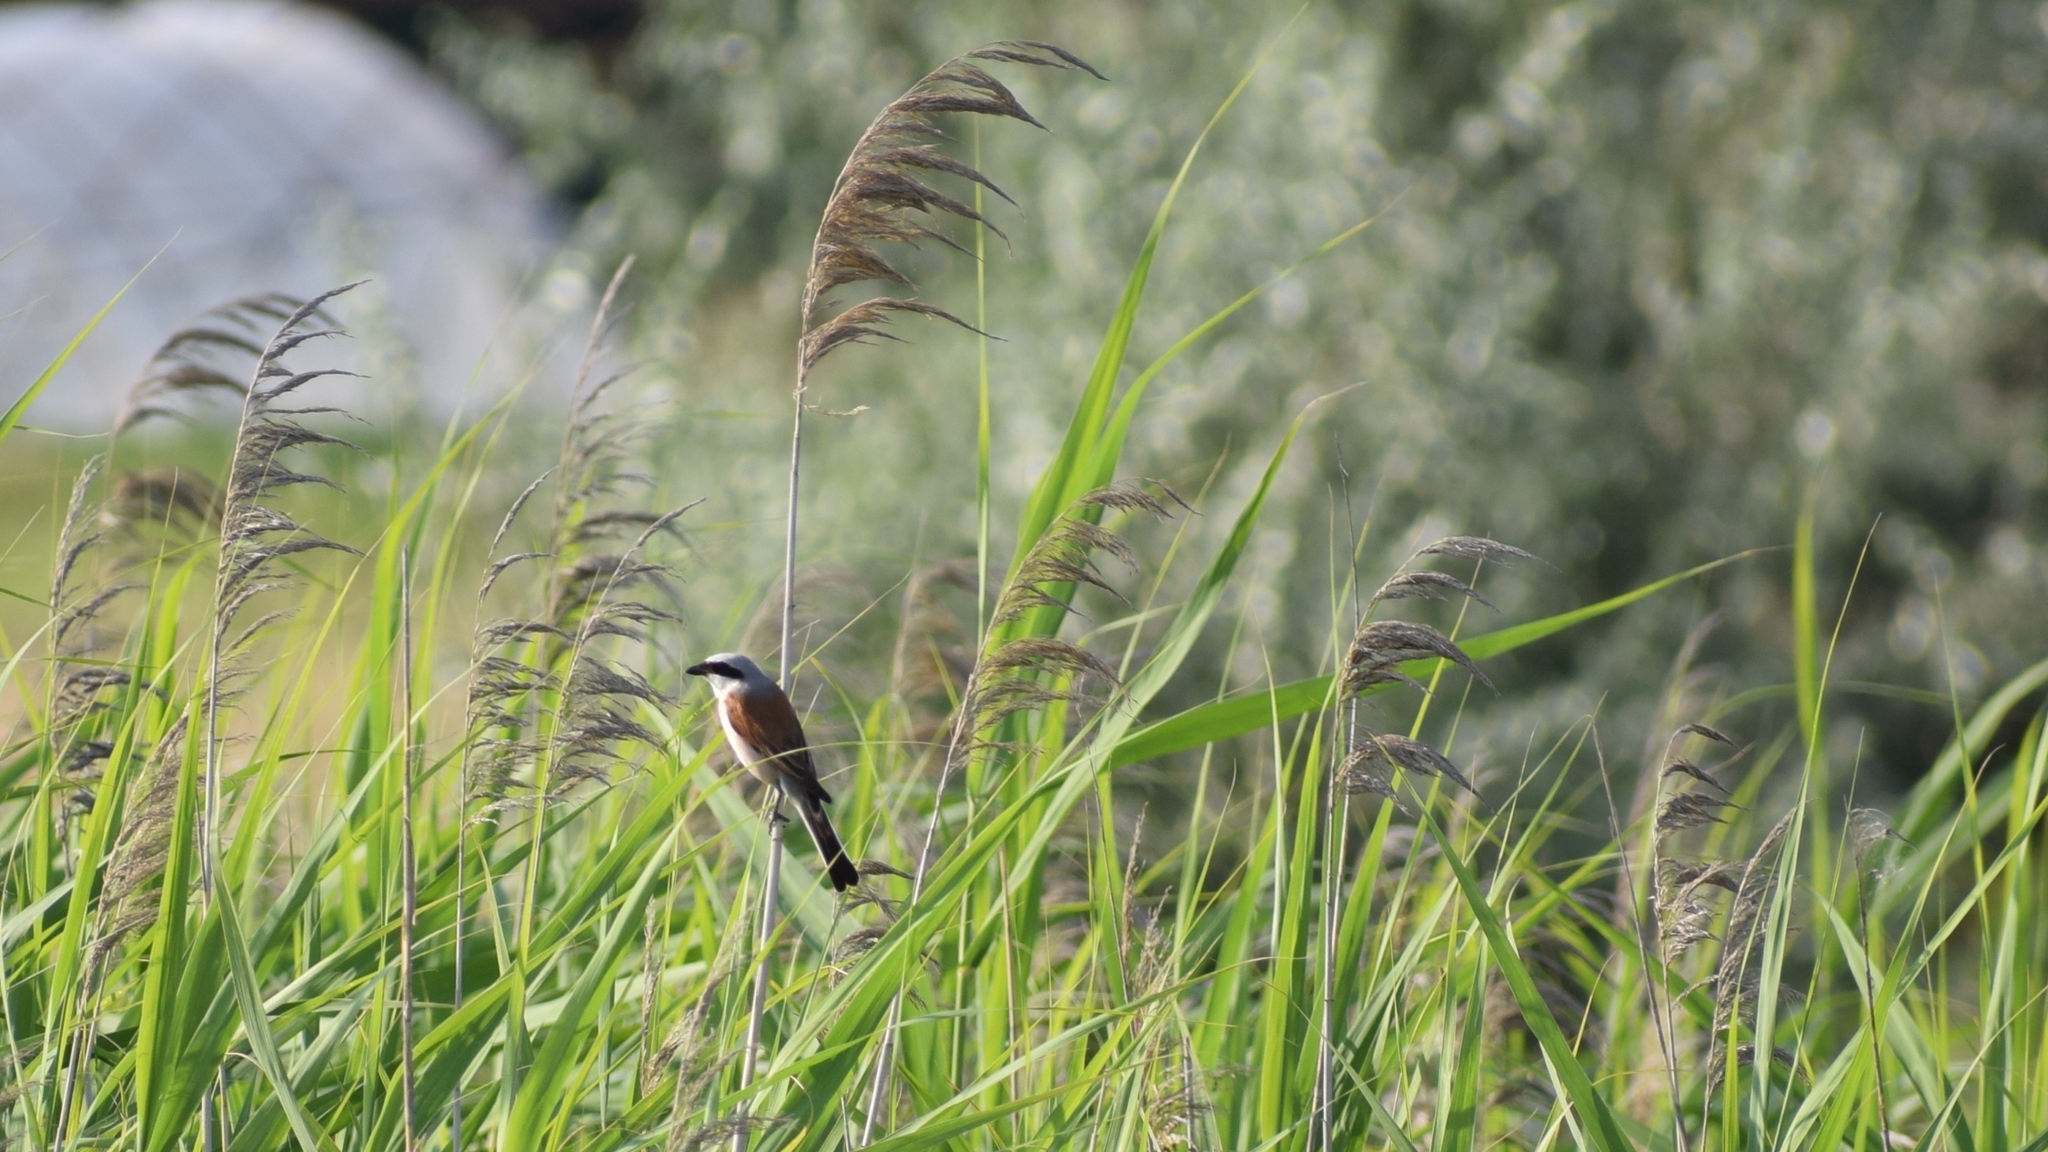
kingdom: Animalia
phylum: Chordata
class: Aves
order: Passeriformes
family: Laniidae
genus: Lanius
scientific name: Lanius collurio
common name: Red-backed shrike
